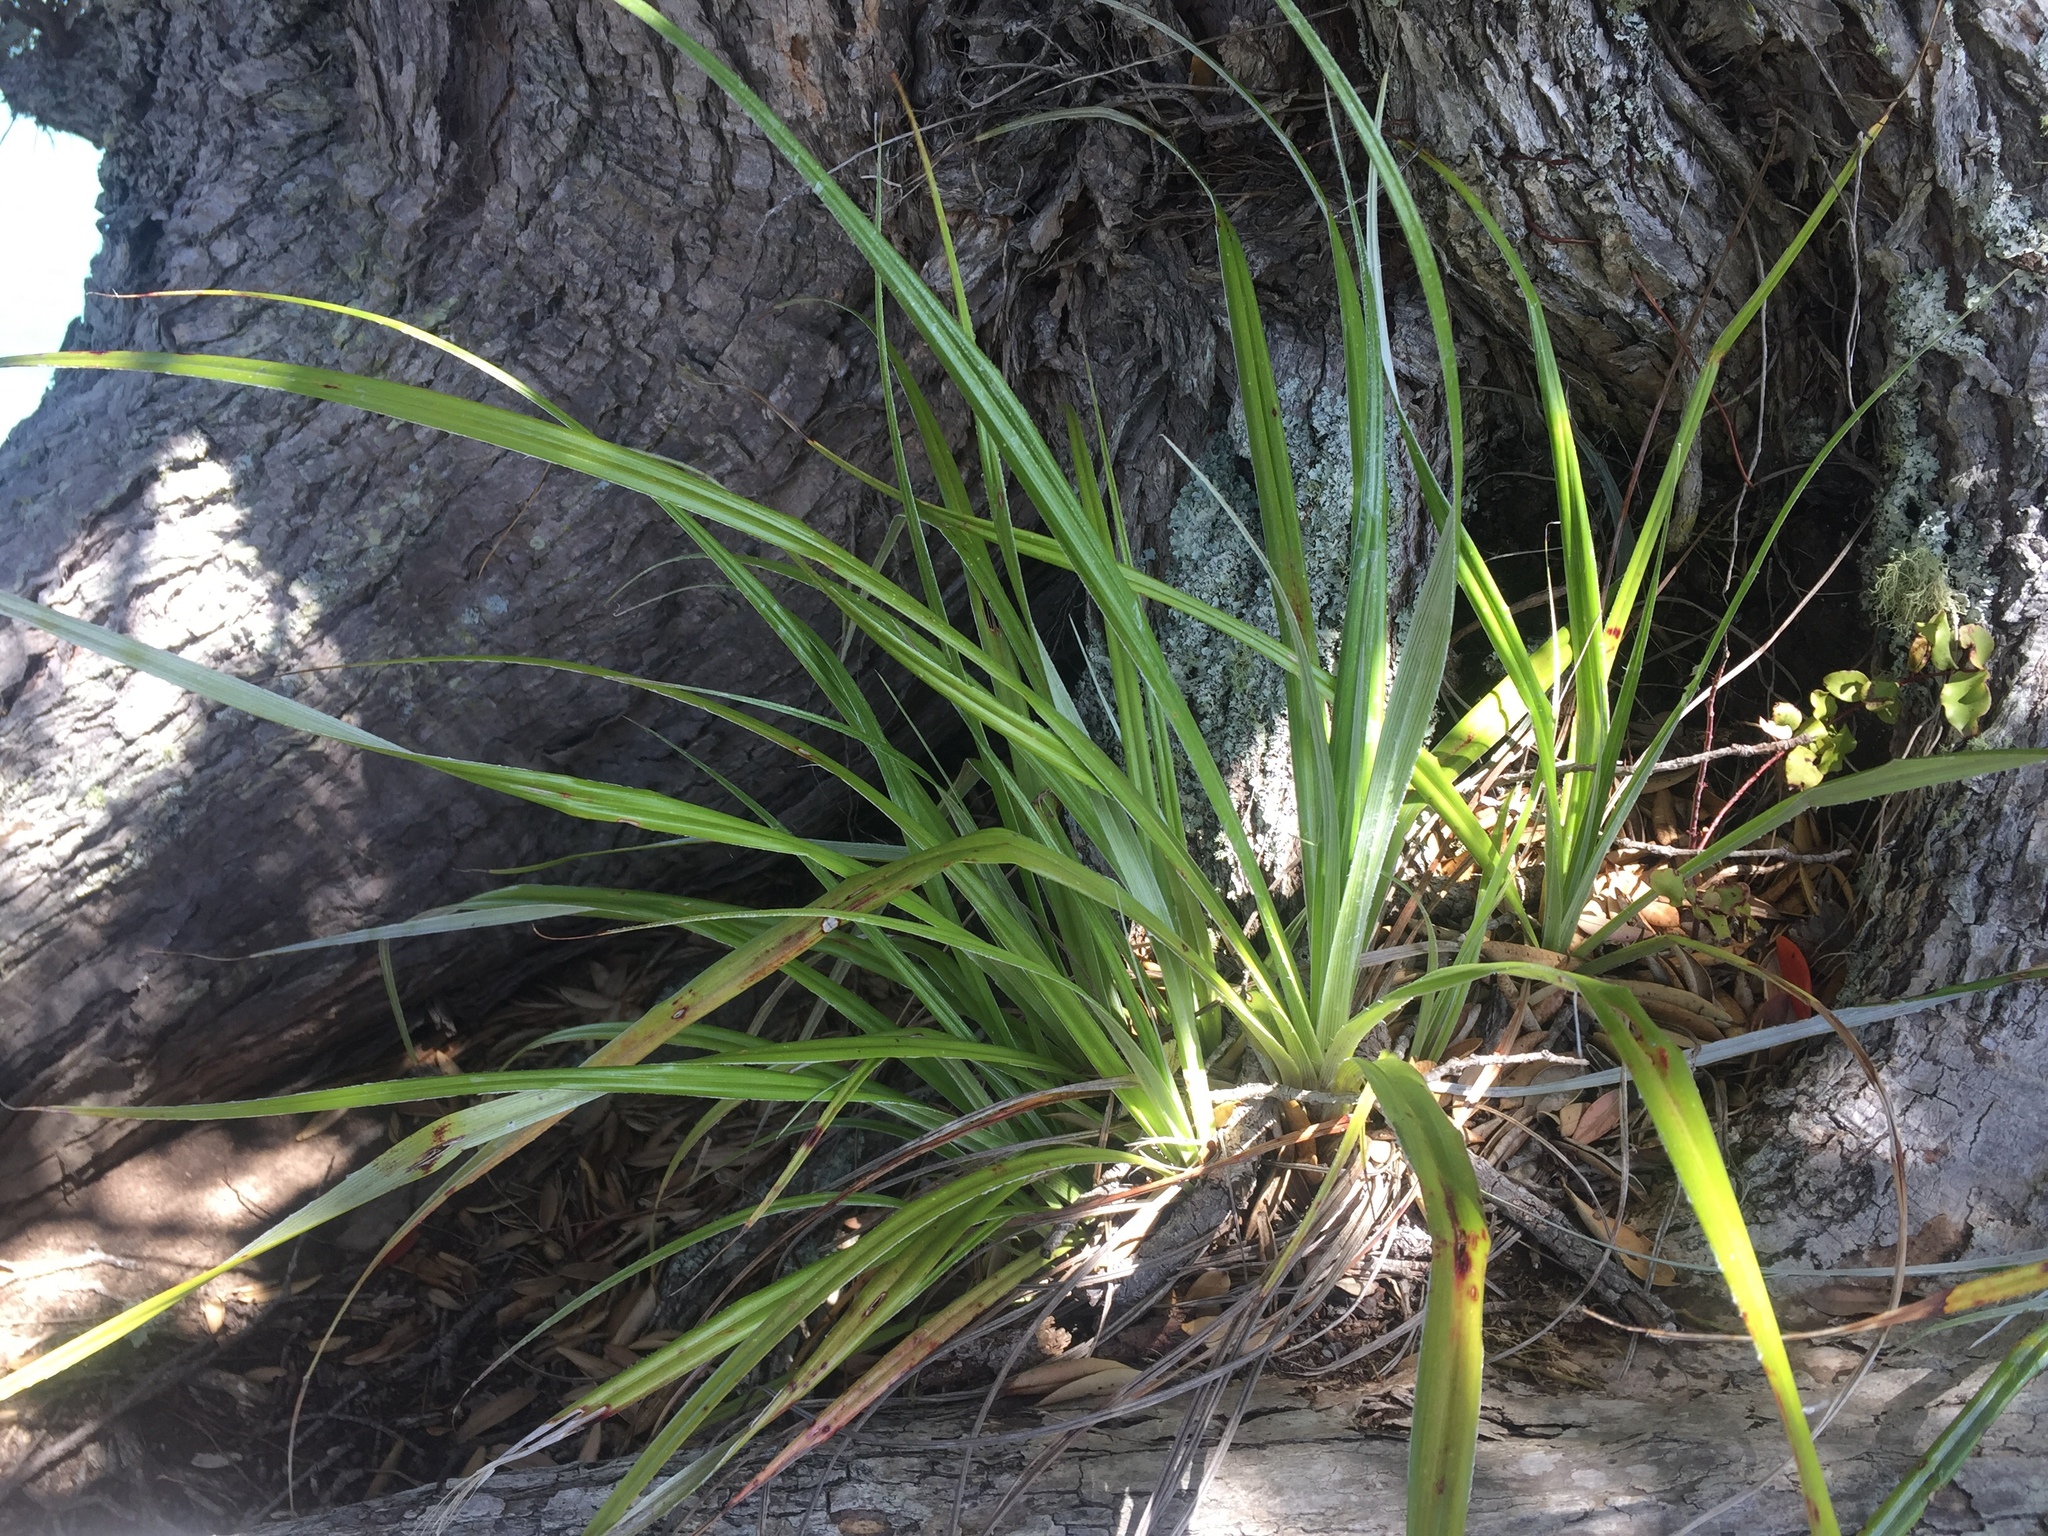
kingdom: Plantae
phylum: Tracheophyta
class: Liliopsida
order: Asparagales
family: Asteliaceae
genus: Astelia
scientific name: Astelia banksii
